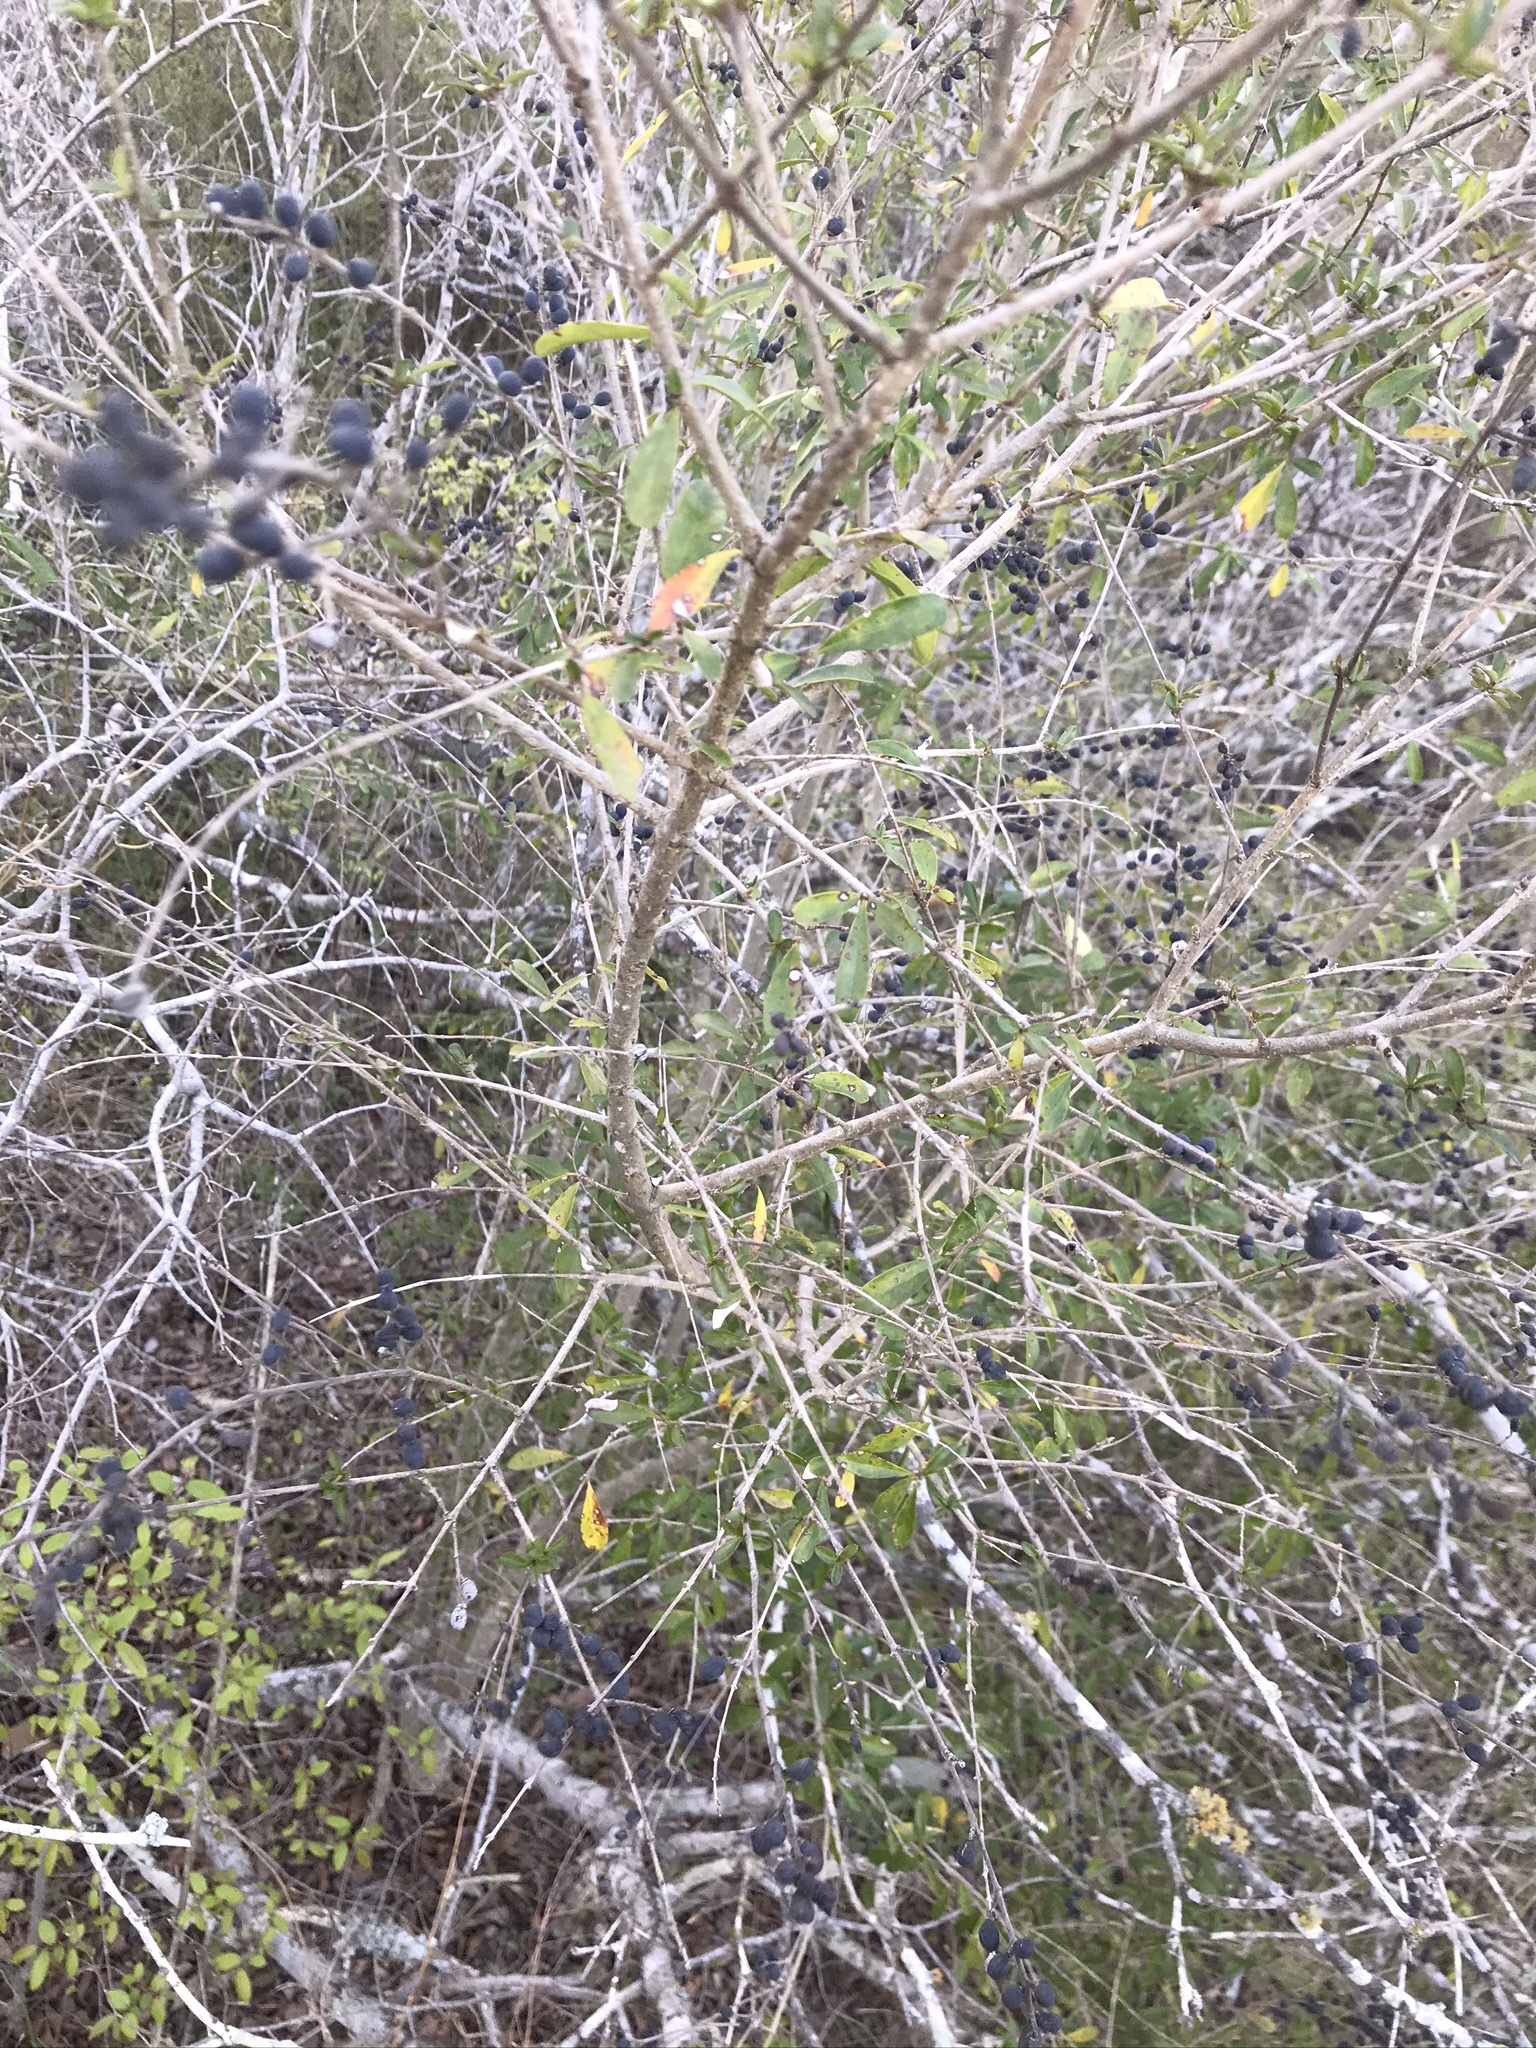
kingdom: Plantae
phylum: Tracheophyta
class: Magnoliopsida
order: Lamiales
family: Oleaceae
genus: Ligustrum
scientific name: Ligustrum quihoui
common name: Waxyleaf privet
